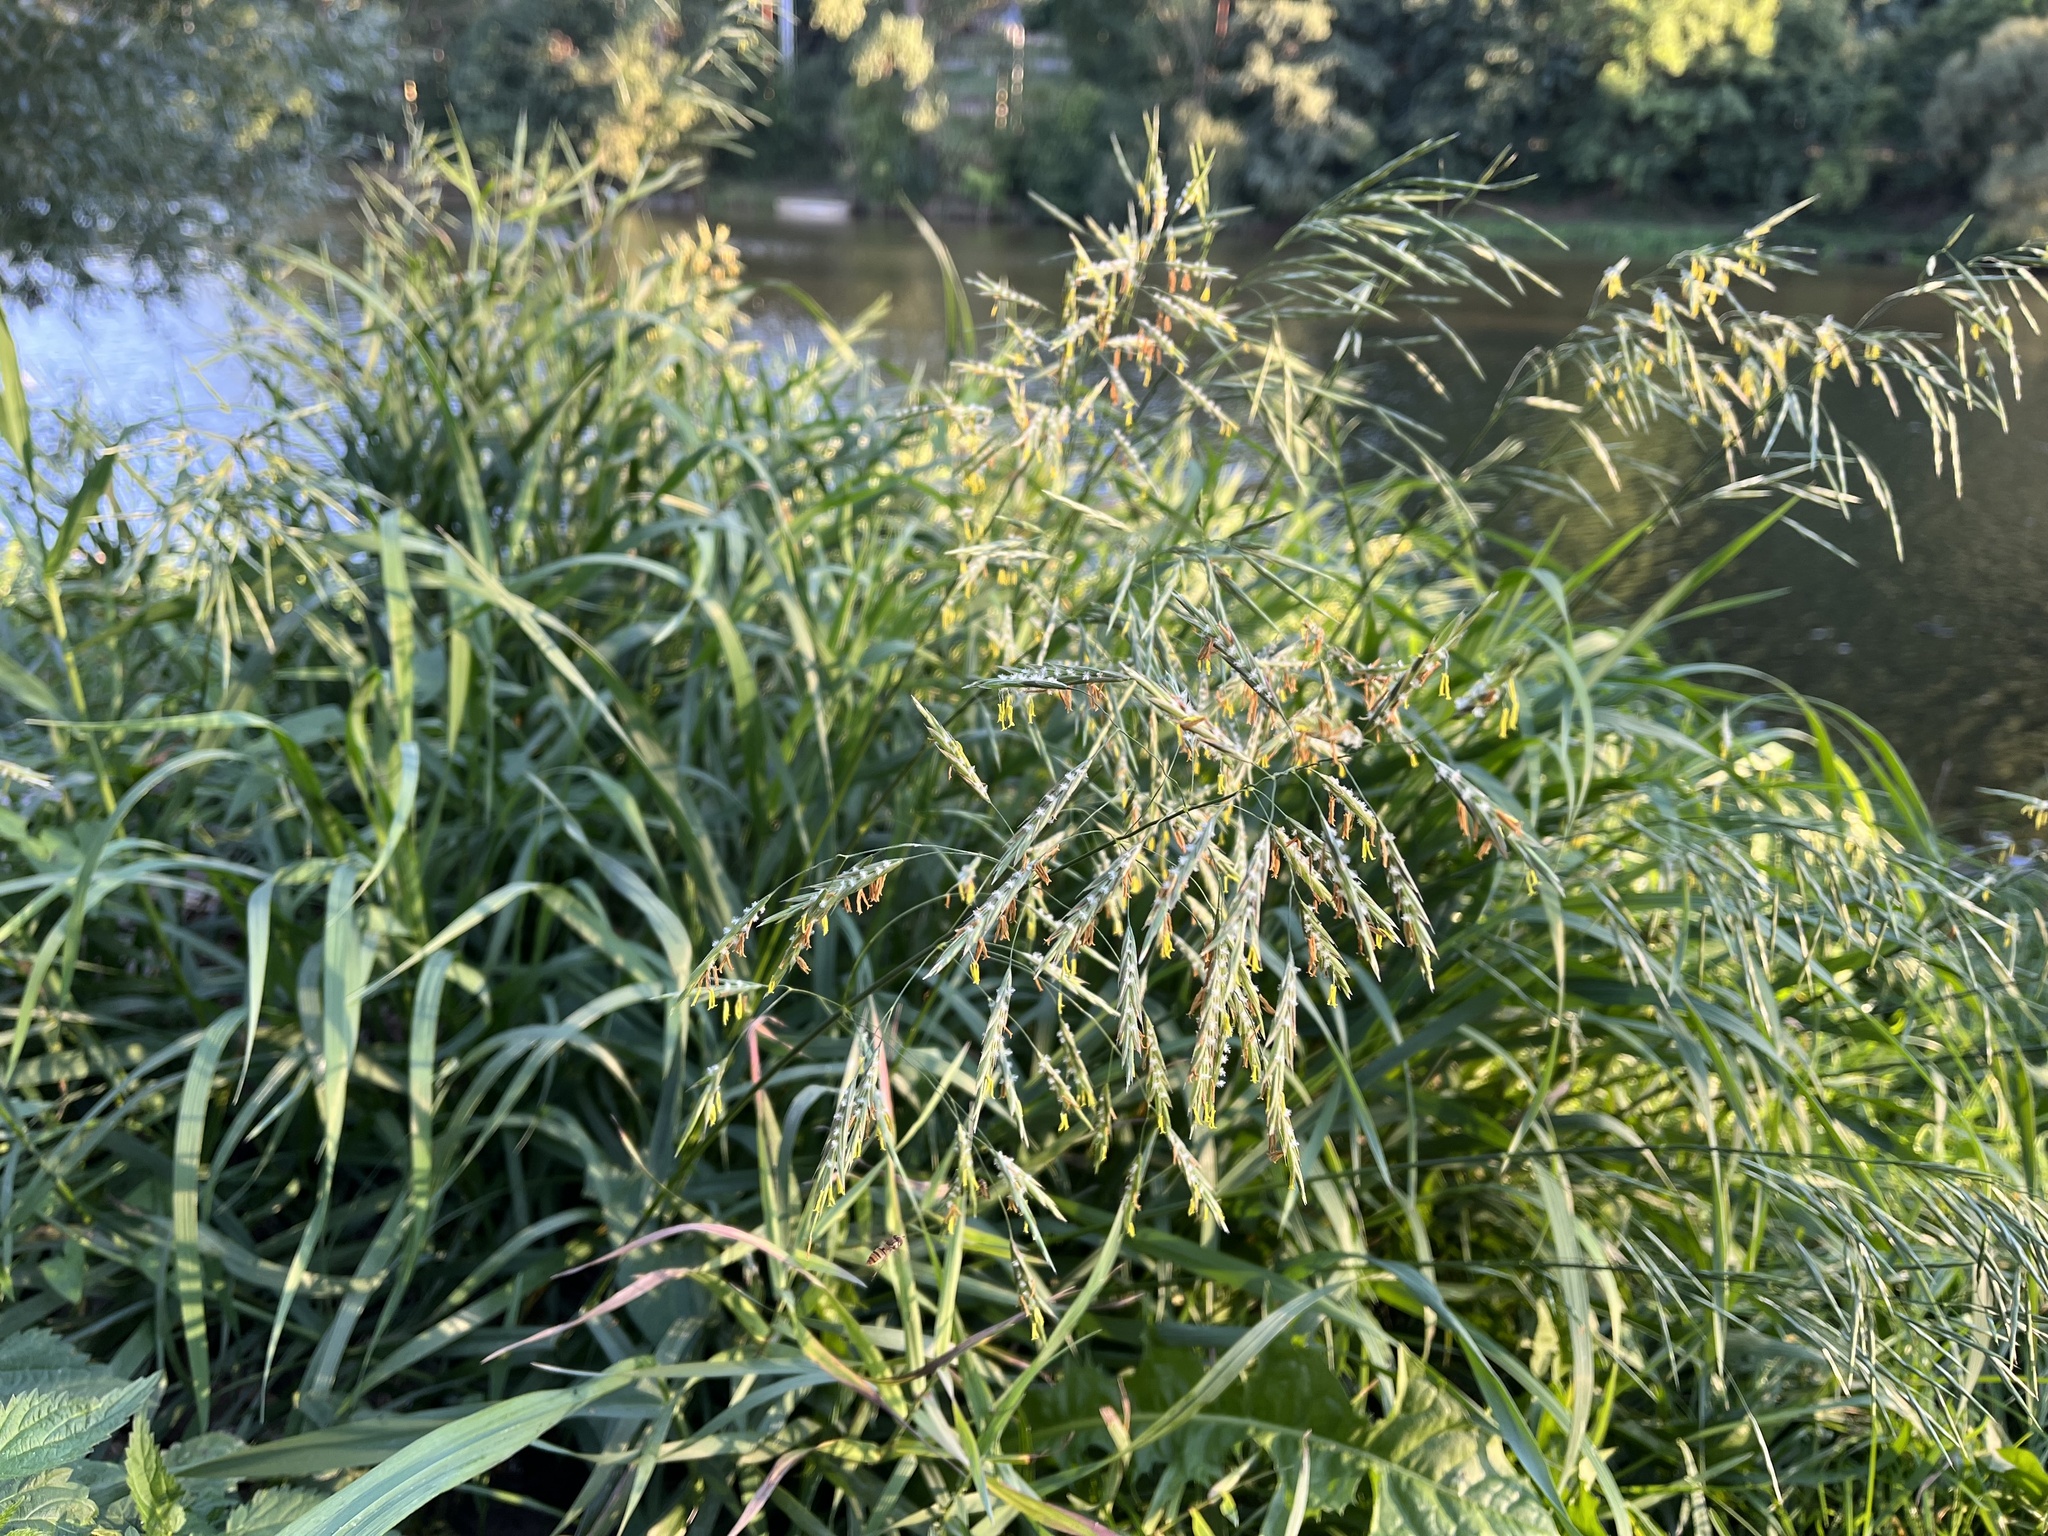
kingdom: Plantae
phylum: Tracheophyta
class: Liliopsida
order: Poales
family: Poaceae
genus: Bromus
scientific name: Bromus inermis
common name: Smooth brome
